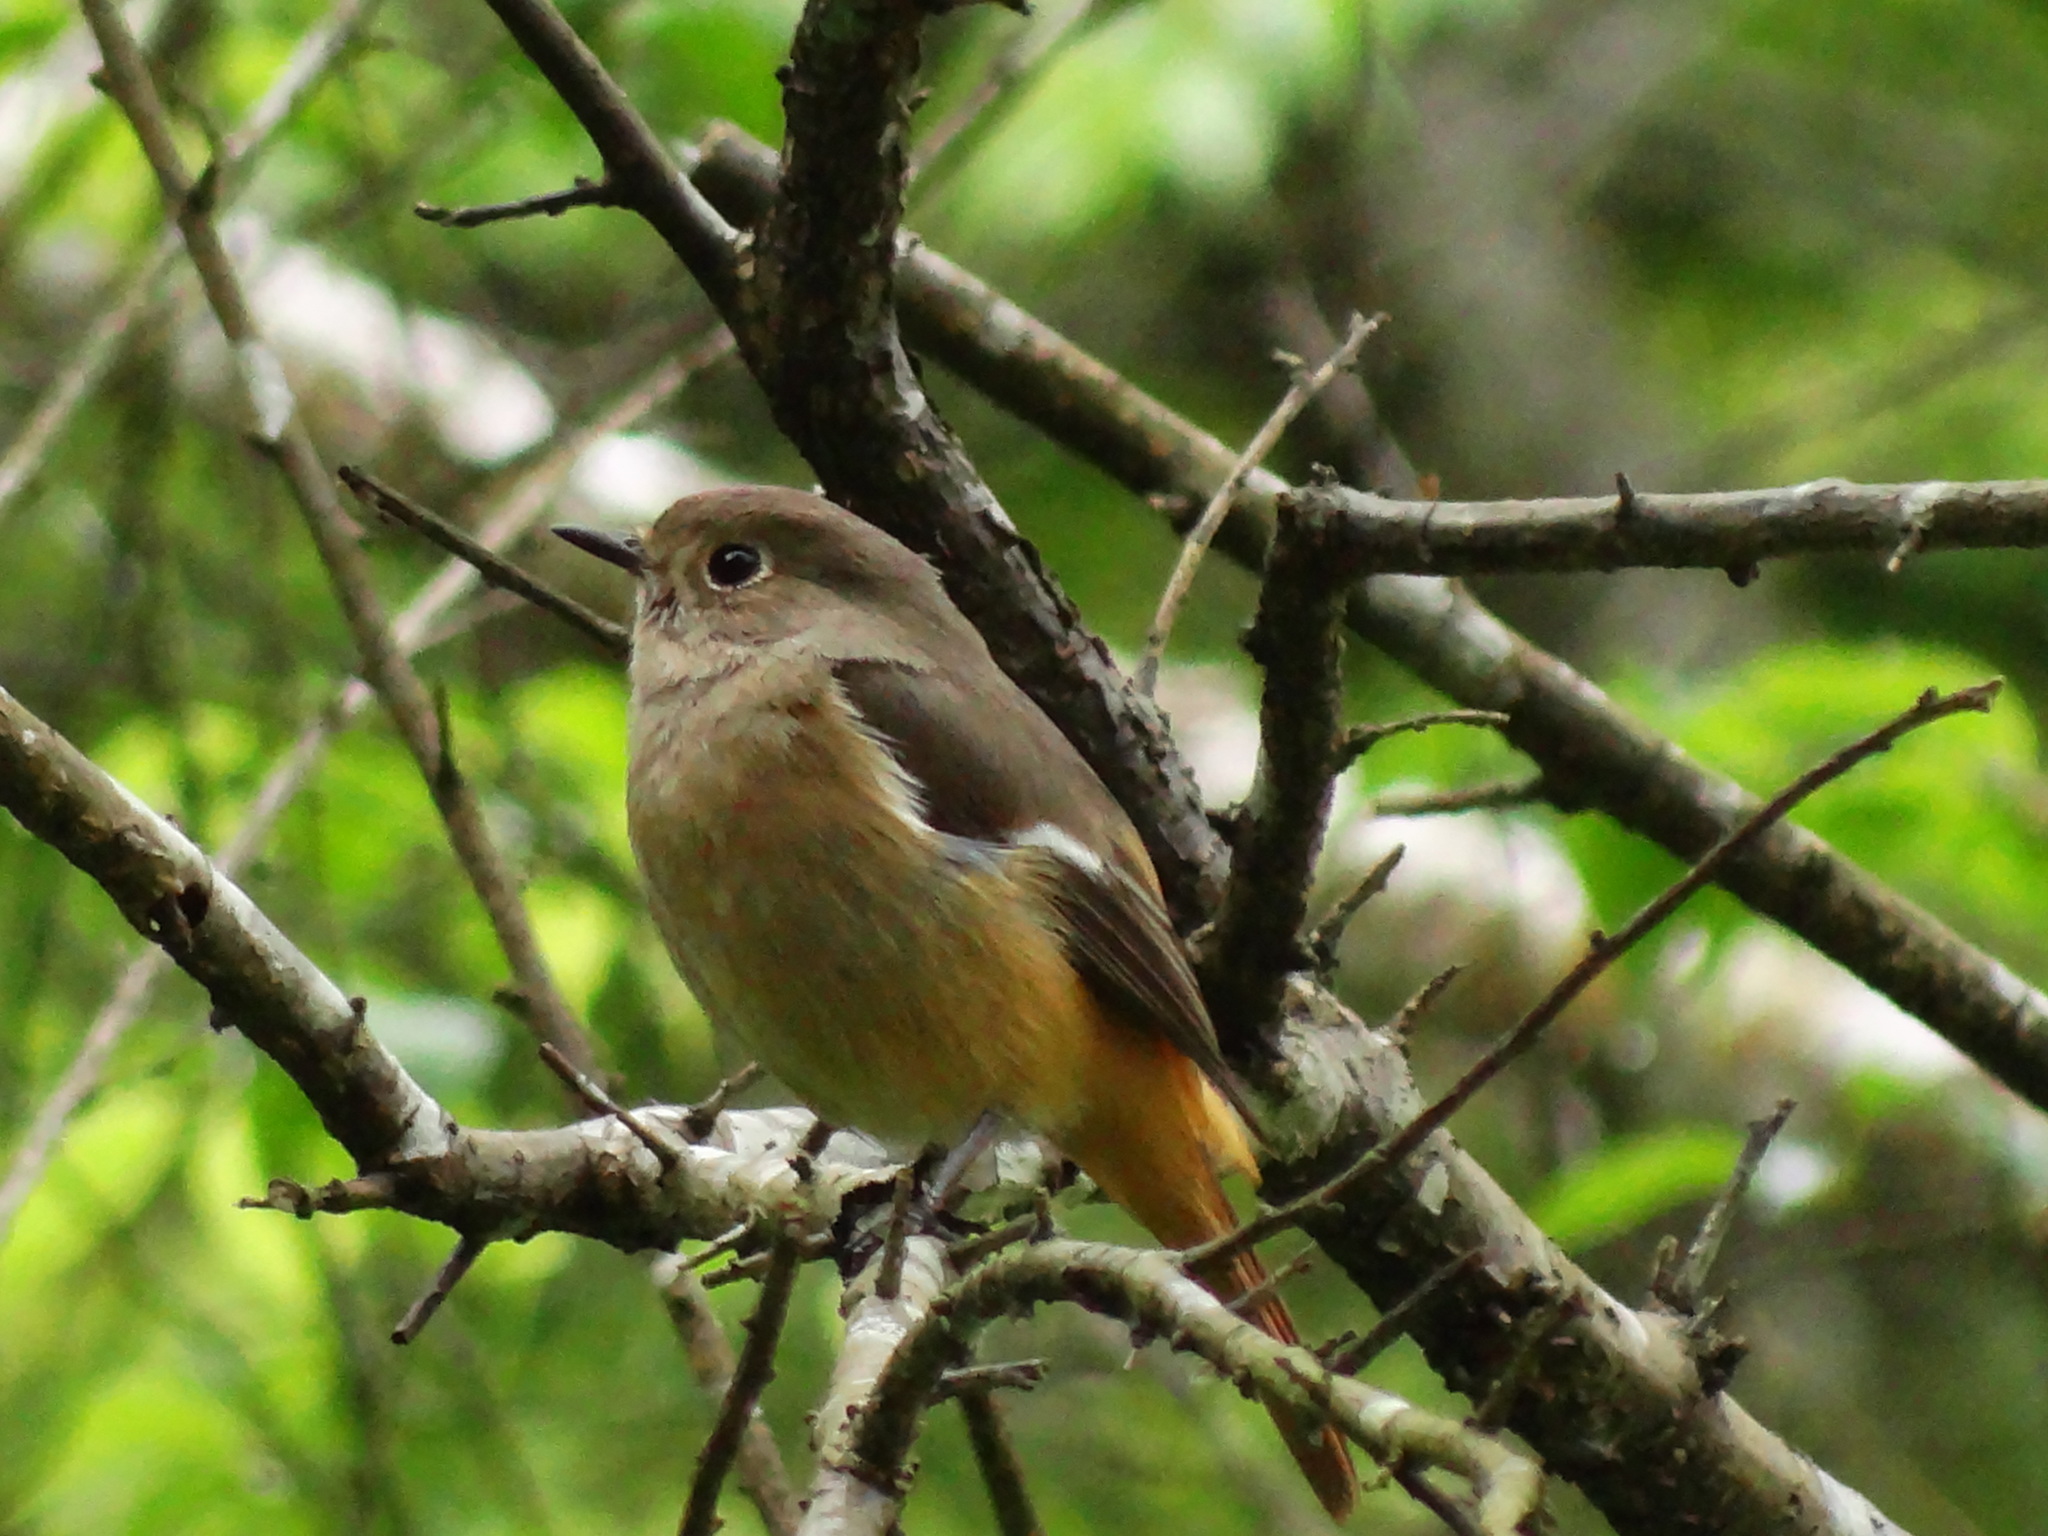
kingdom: Animalia
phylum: Chordata
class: Aves
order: Passeriformes
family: Muscicapidae
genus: Phoenicurus
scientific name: Phoenicurus auroreus
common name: Daurian redstart
